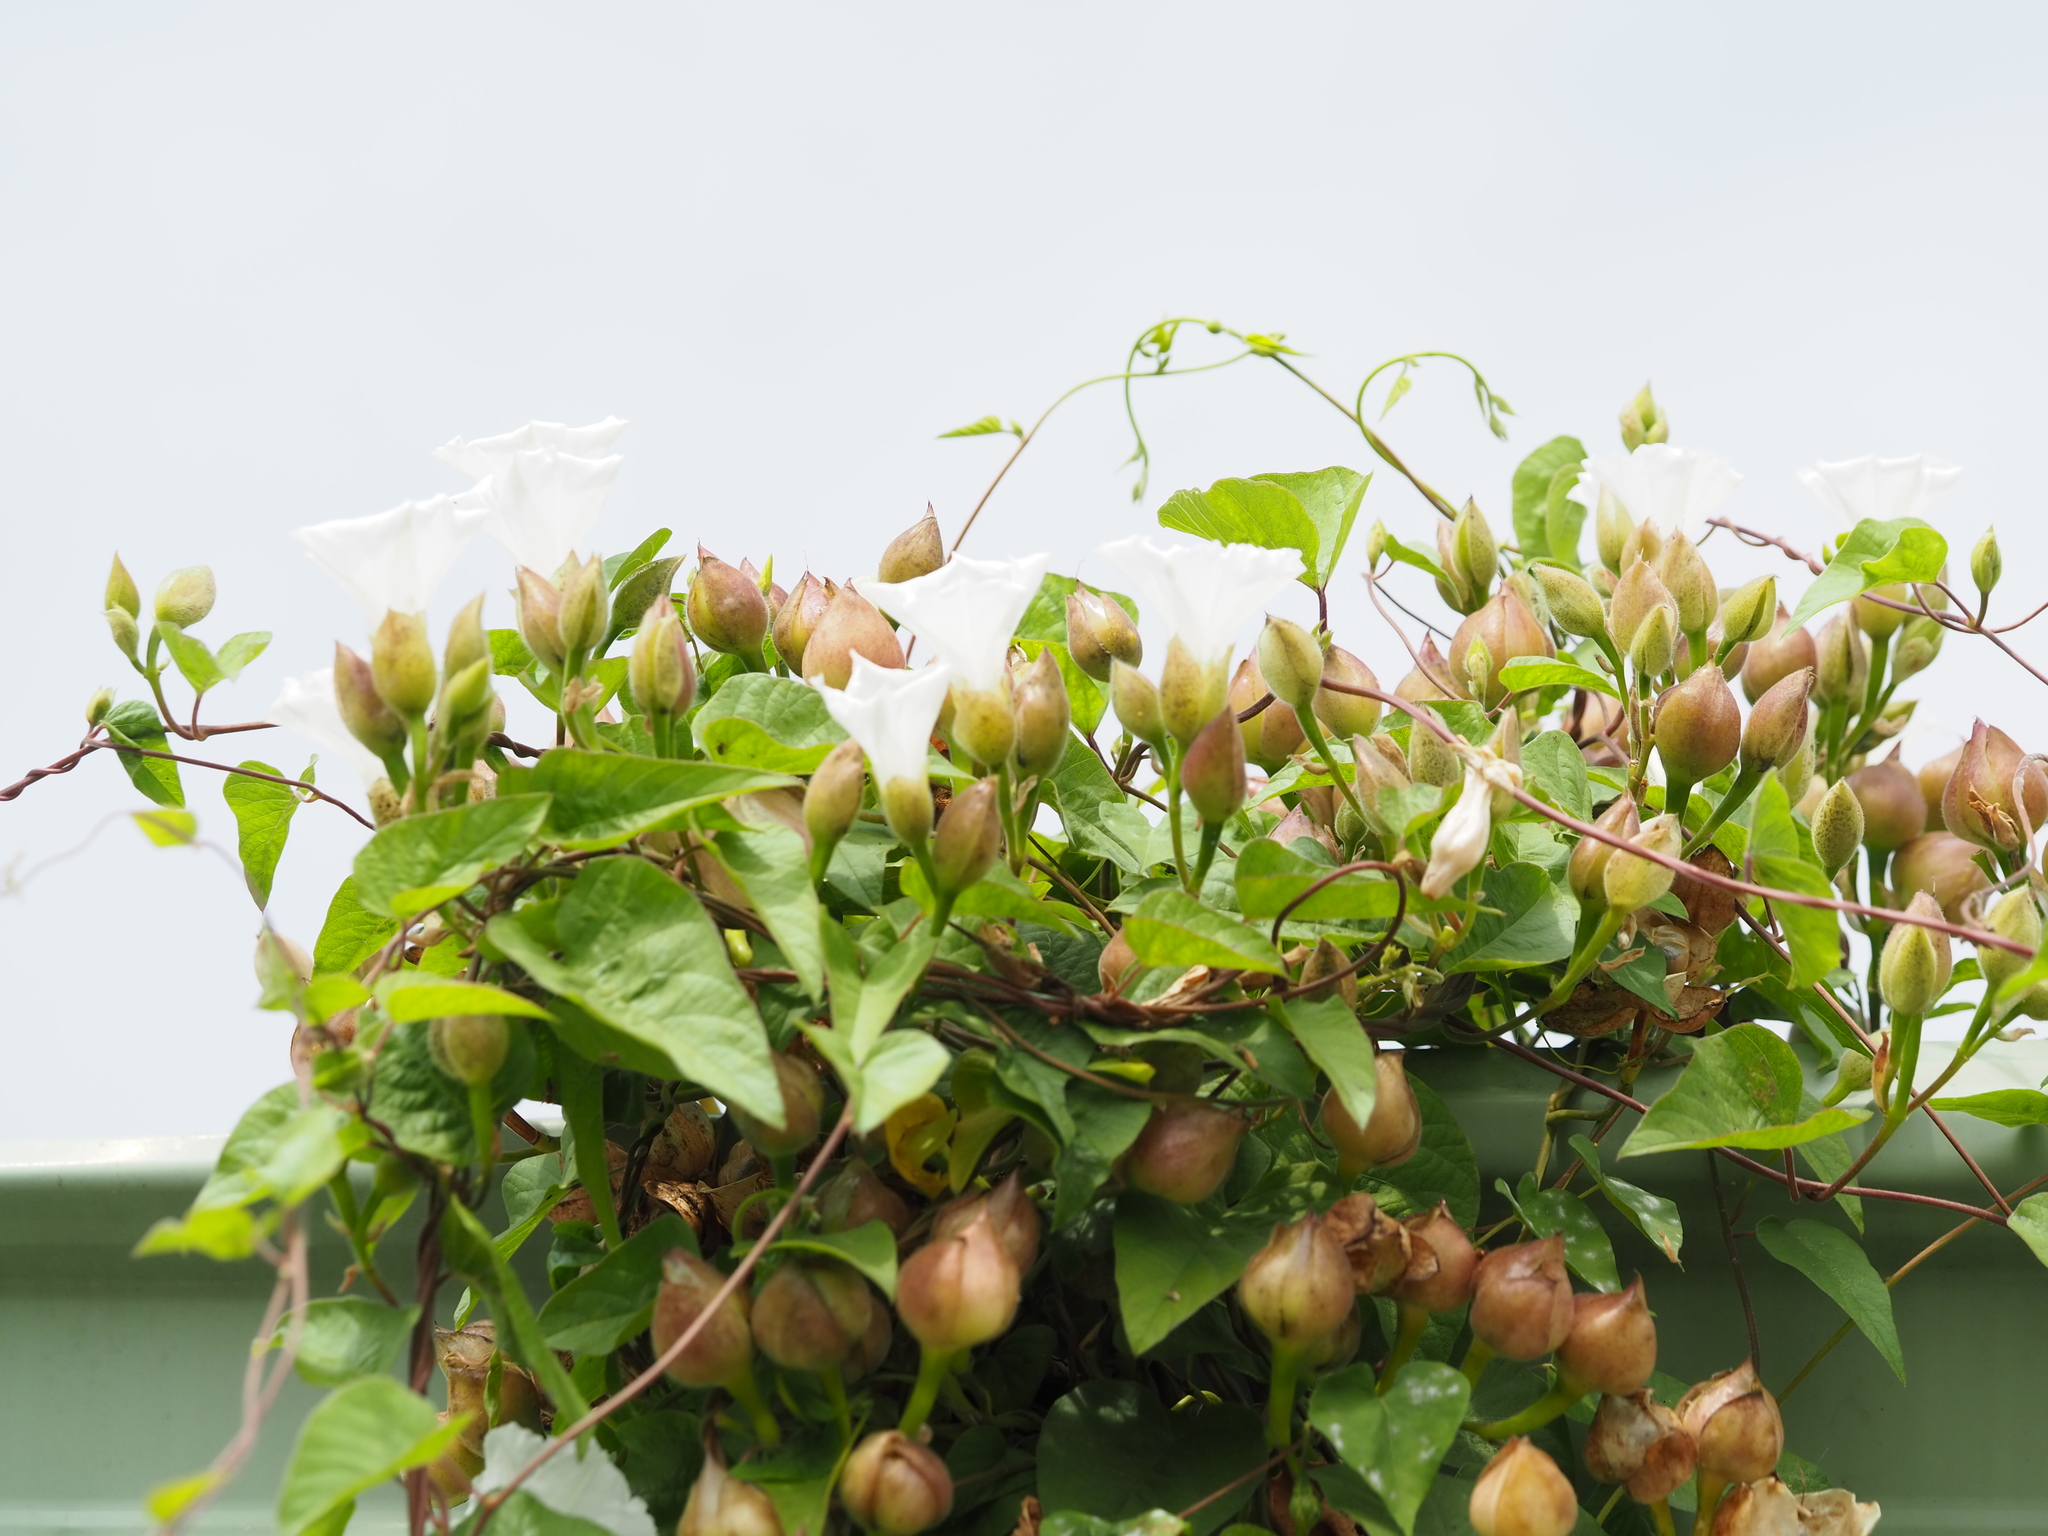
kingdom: Plantae
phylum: Tracheophyta
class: Magnoliopsida
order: Solanales
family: Convolvulaceae
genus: Operculina
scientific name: Operculina turpethum
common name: Transparent wood-rose
